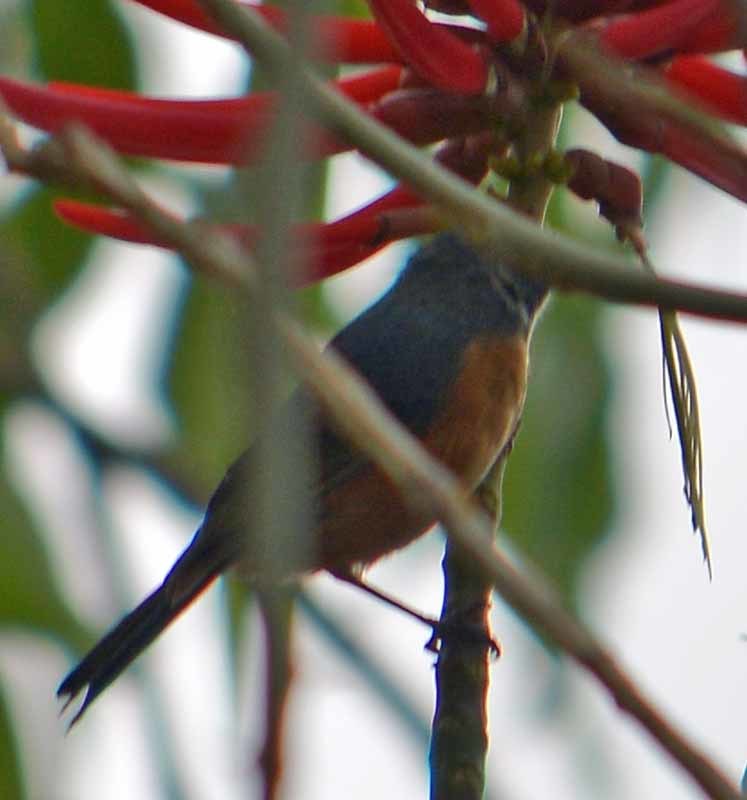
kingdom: Animalia
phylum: Chordata
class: Aves
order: Passeriformes
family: Thraupidae
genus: Diglossa
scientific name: Diglossa baritula
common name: Cinnamon-bellied flowerpiercer
